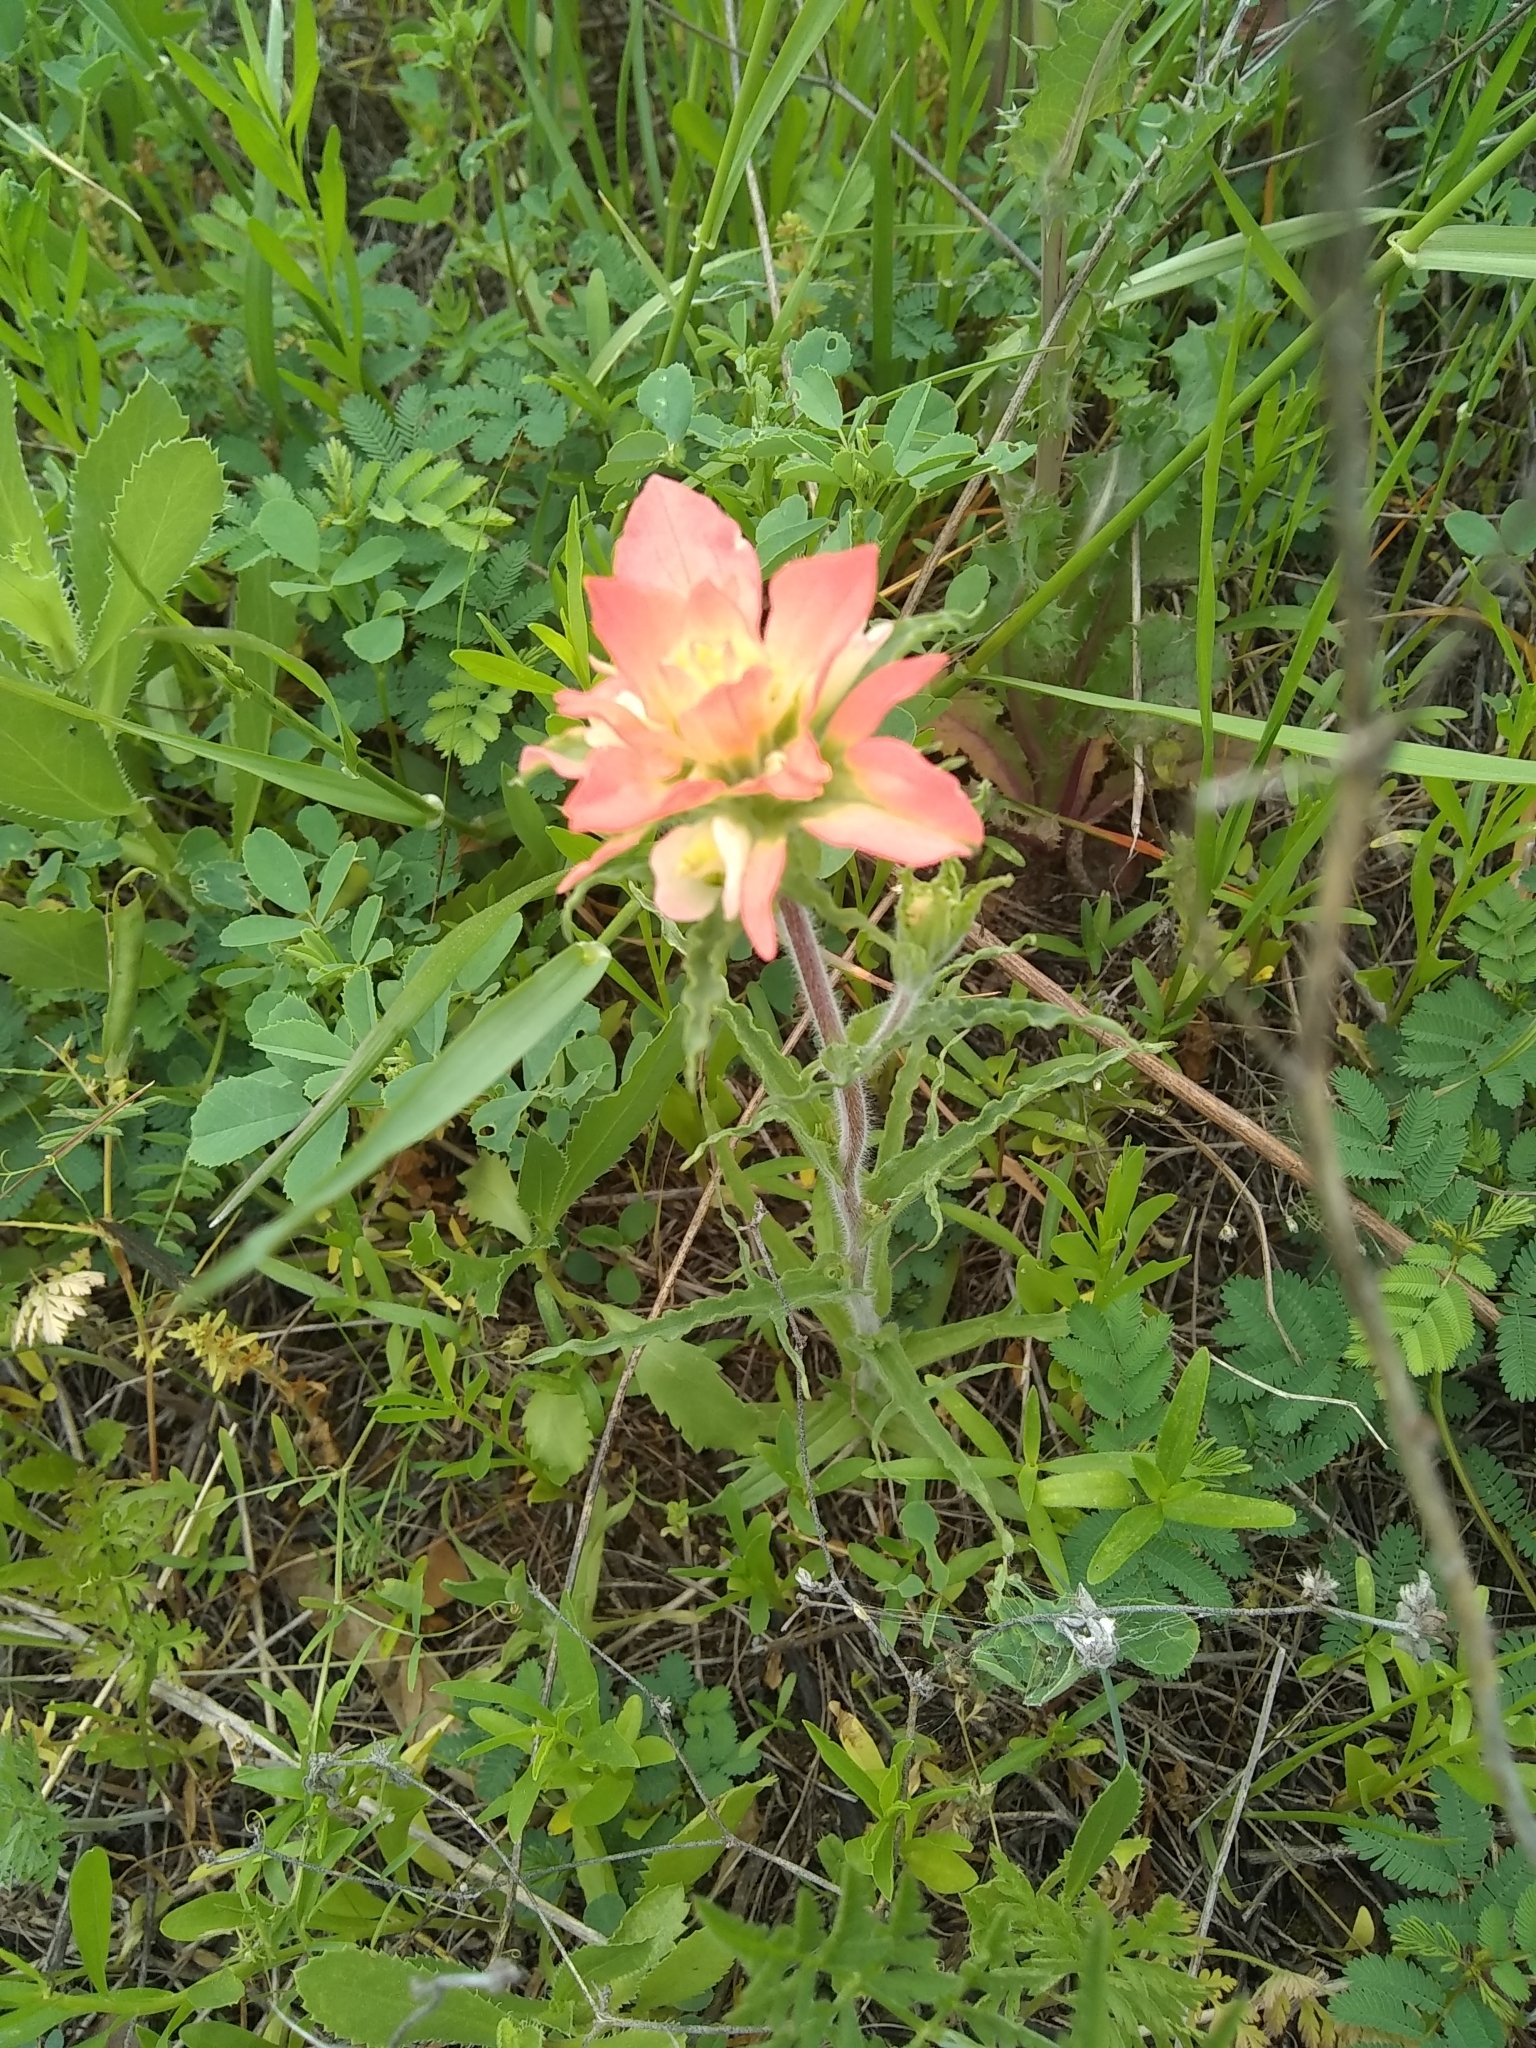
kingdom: Plantae
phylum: Tracheophyta
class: Magnoliopsida
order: Lamiales
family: Orobanchaceae
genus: Castilleja
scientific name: Castilleja indivisa
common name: Texas paintbrush
